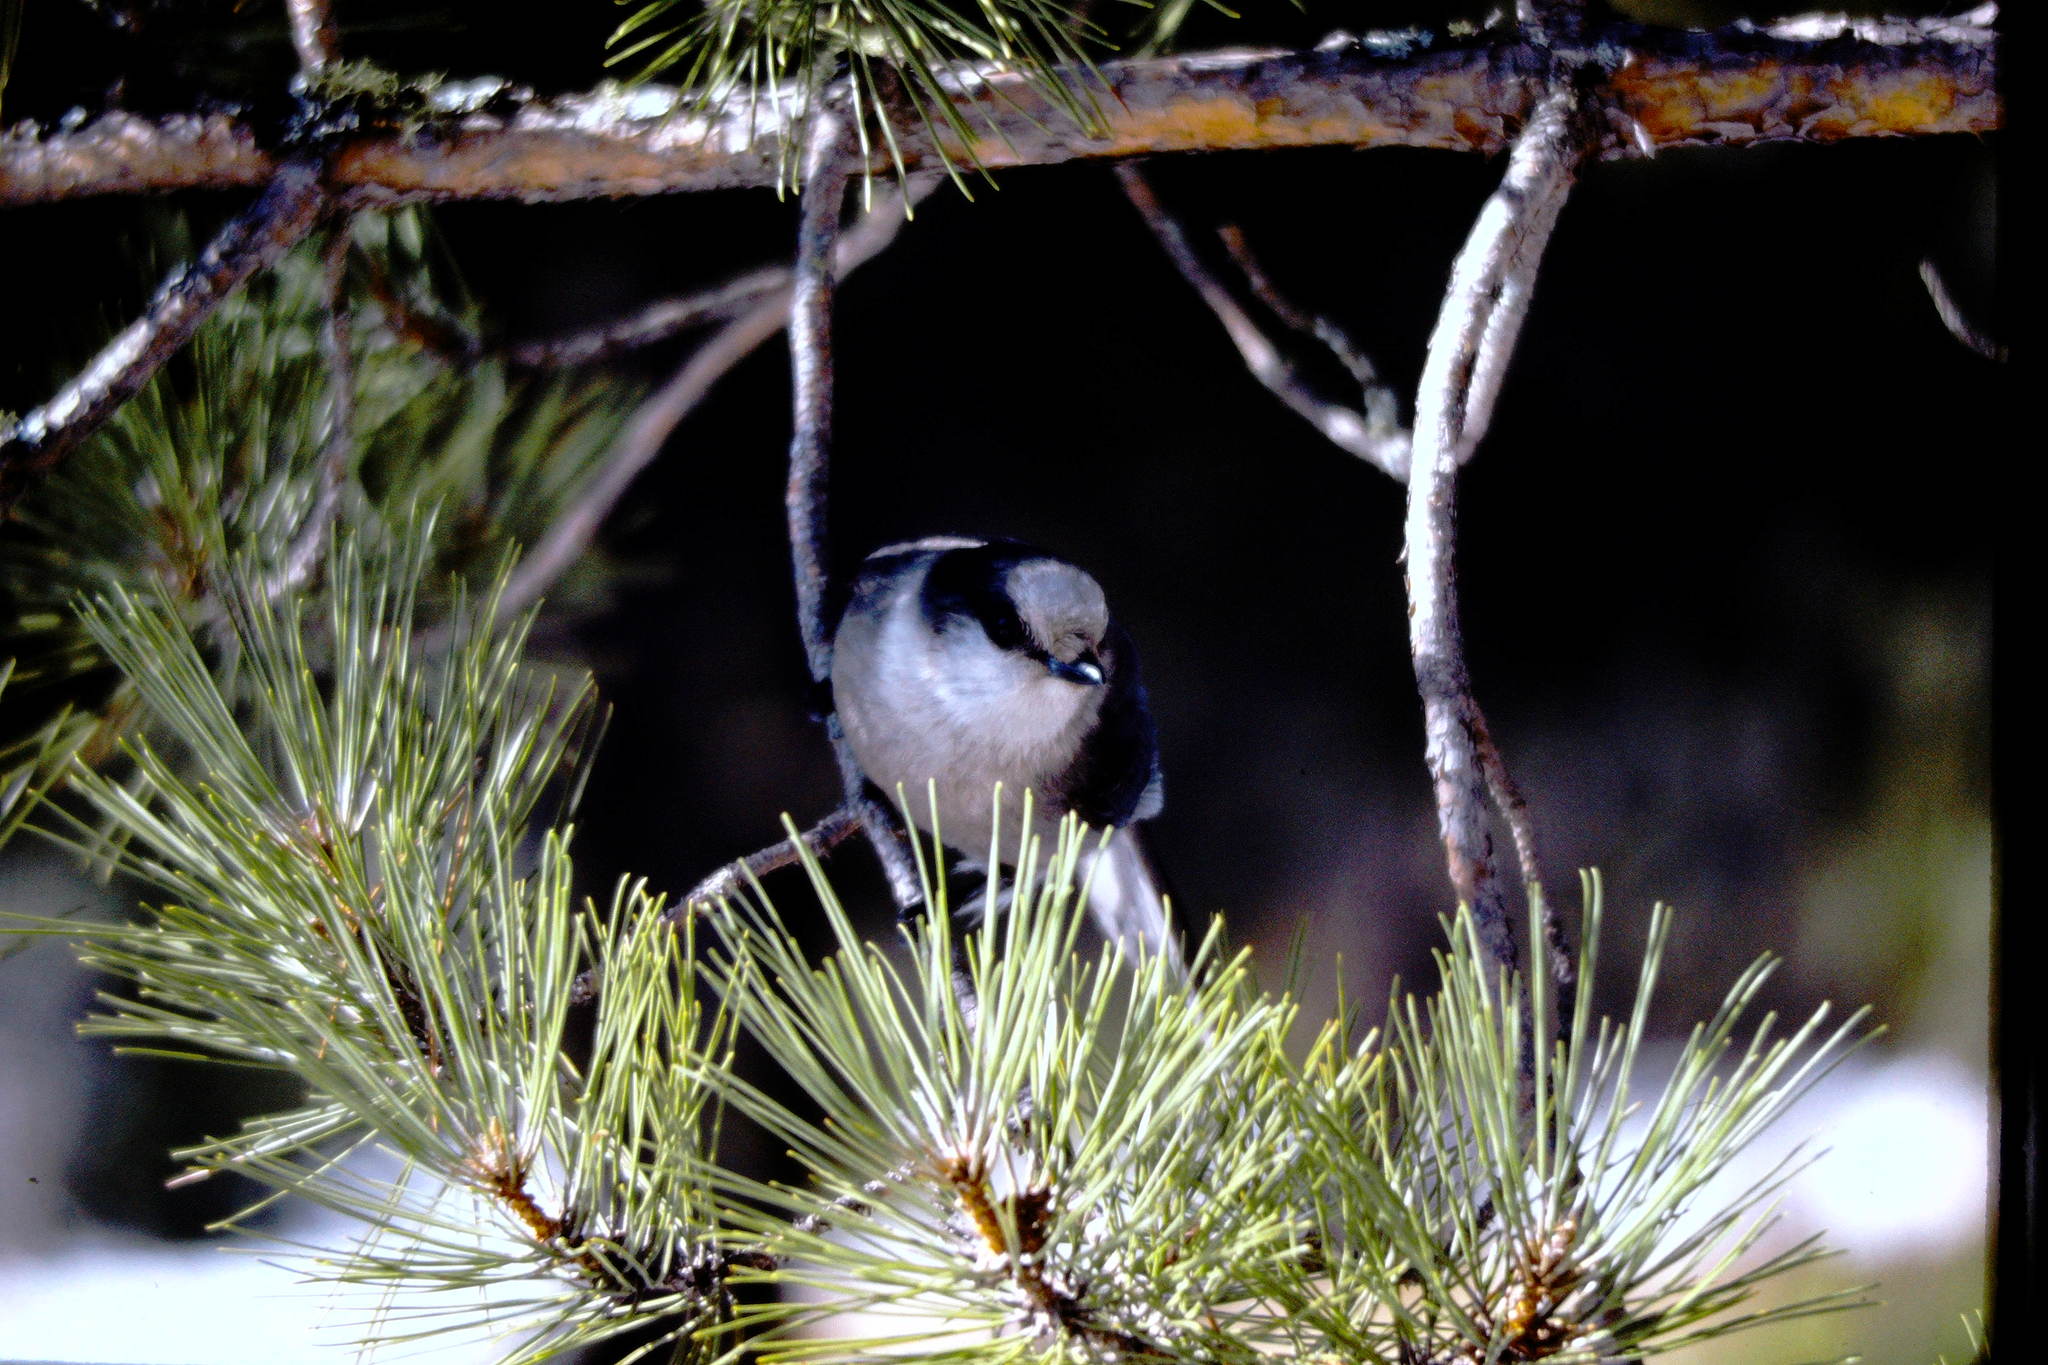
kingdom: Animalia
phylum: Chordata
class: Aves
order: Passeriformes
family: Corvidae
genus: Perisoreus
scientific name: Perisoreus canadensis
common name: Gray jay
